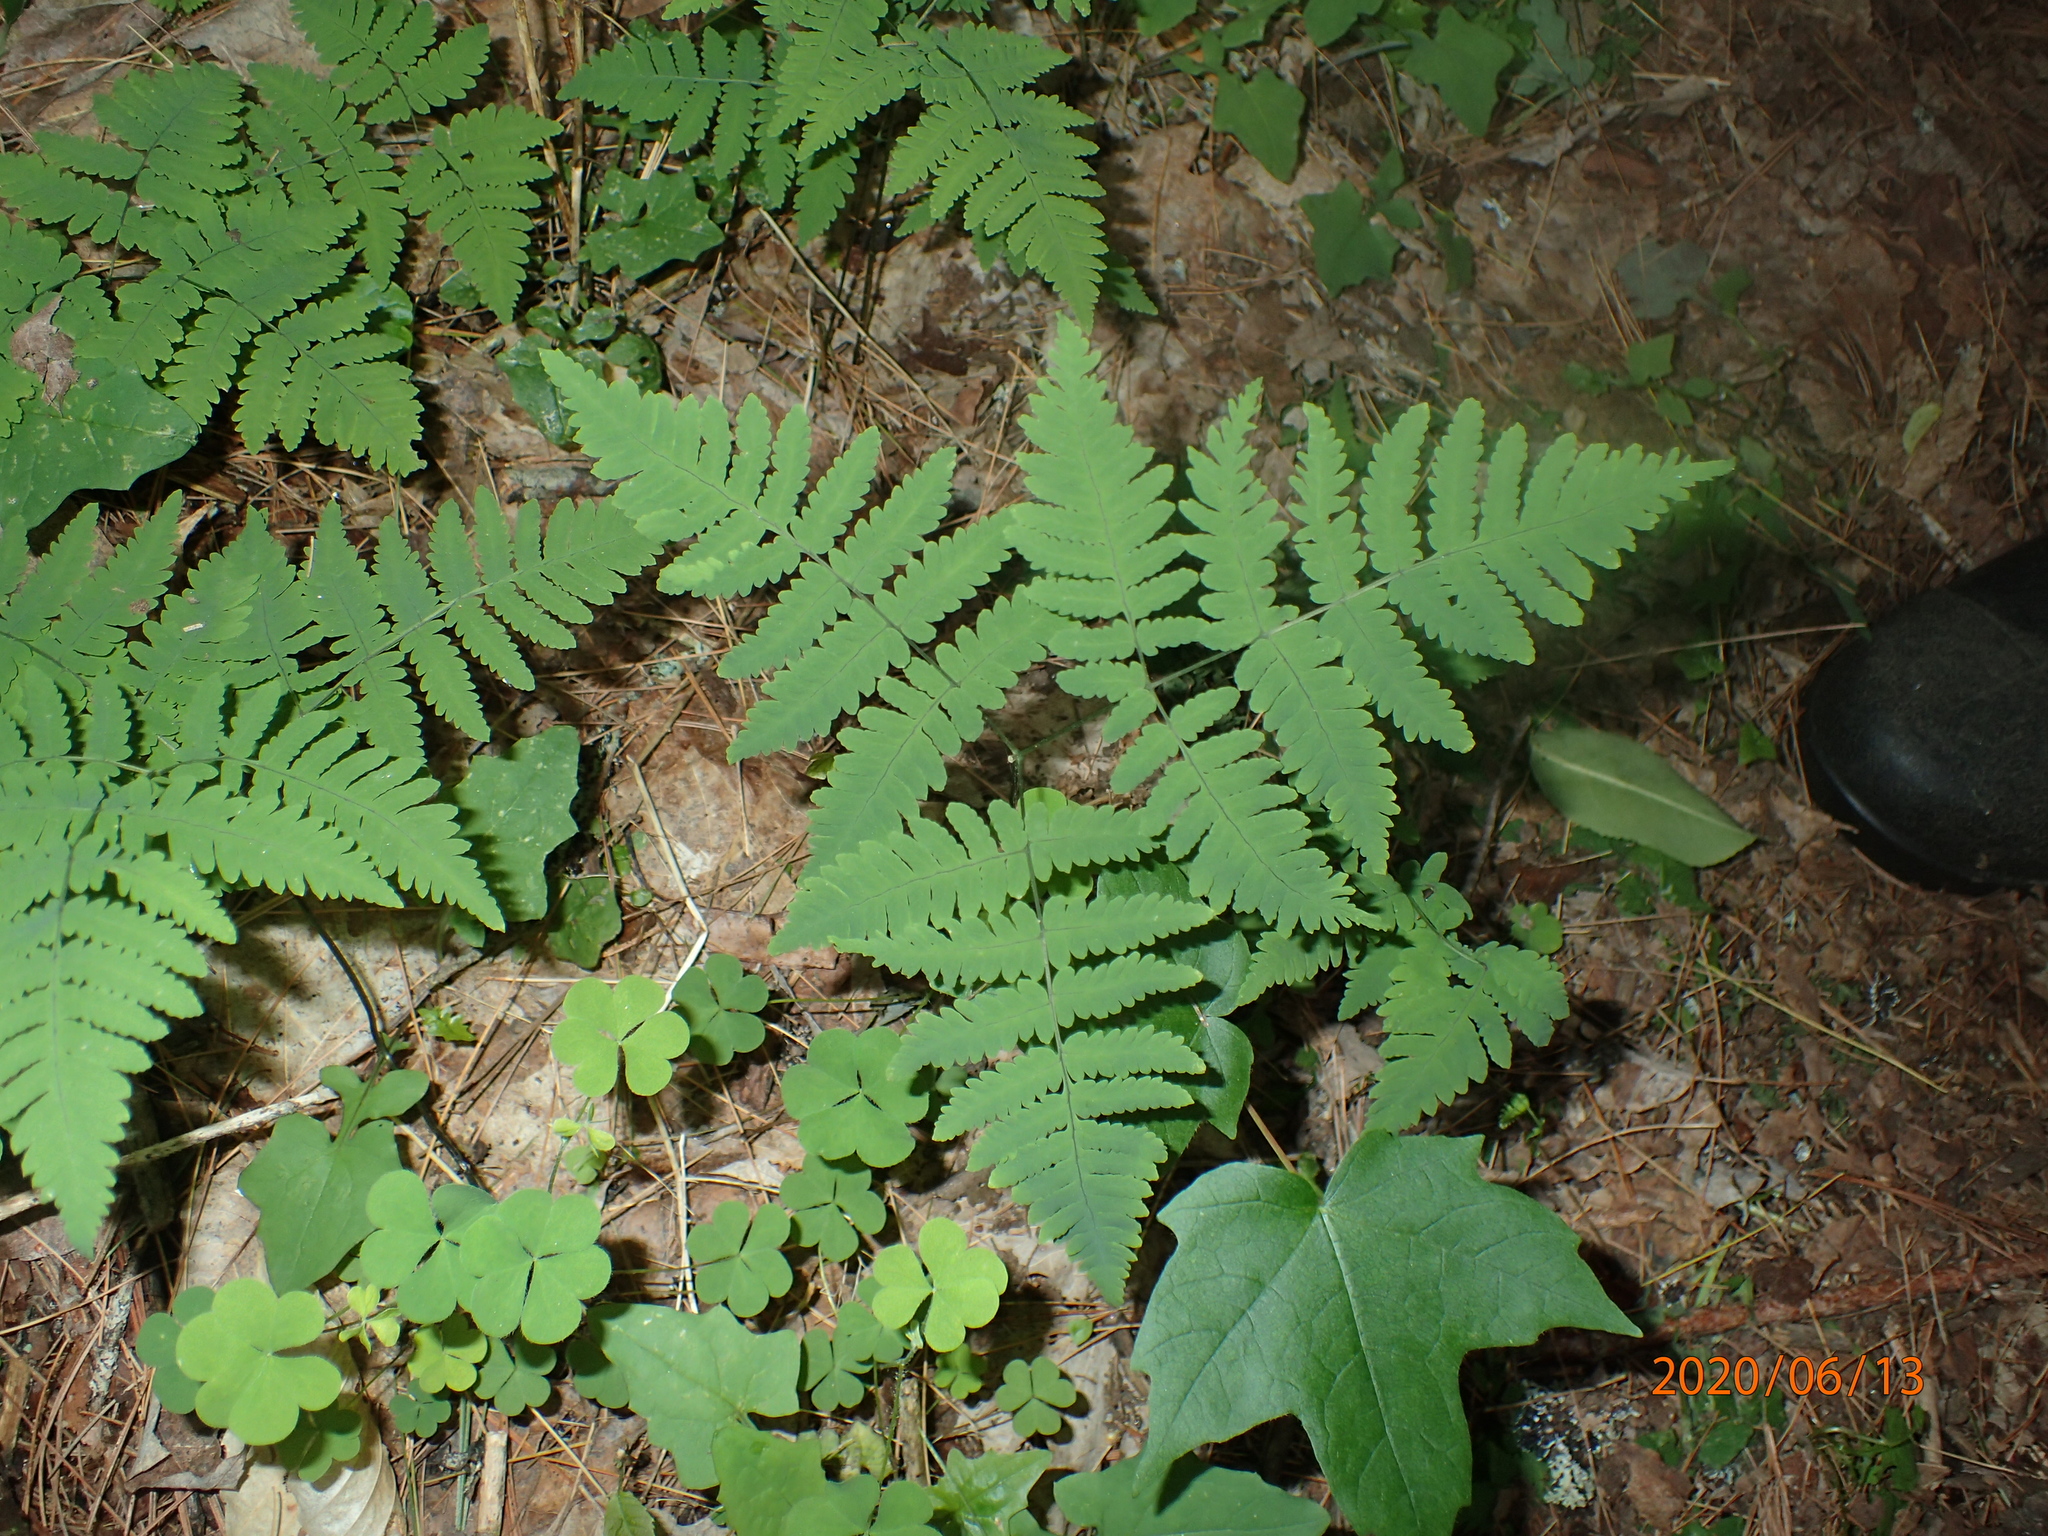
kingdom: Plantae
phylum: Tracheophyta
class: Polypodiopsida
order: Polypodiales
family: Cystopteridaceae
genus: Gymnocarpium
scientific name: Gymnocarpium dryopteris
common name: Oak fern
